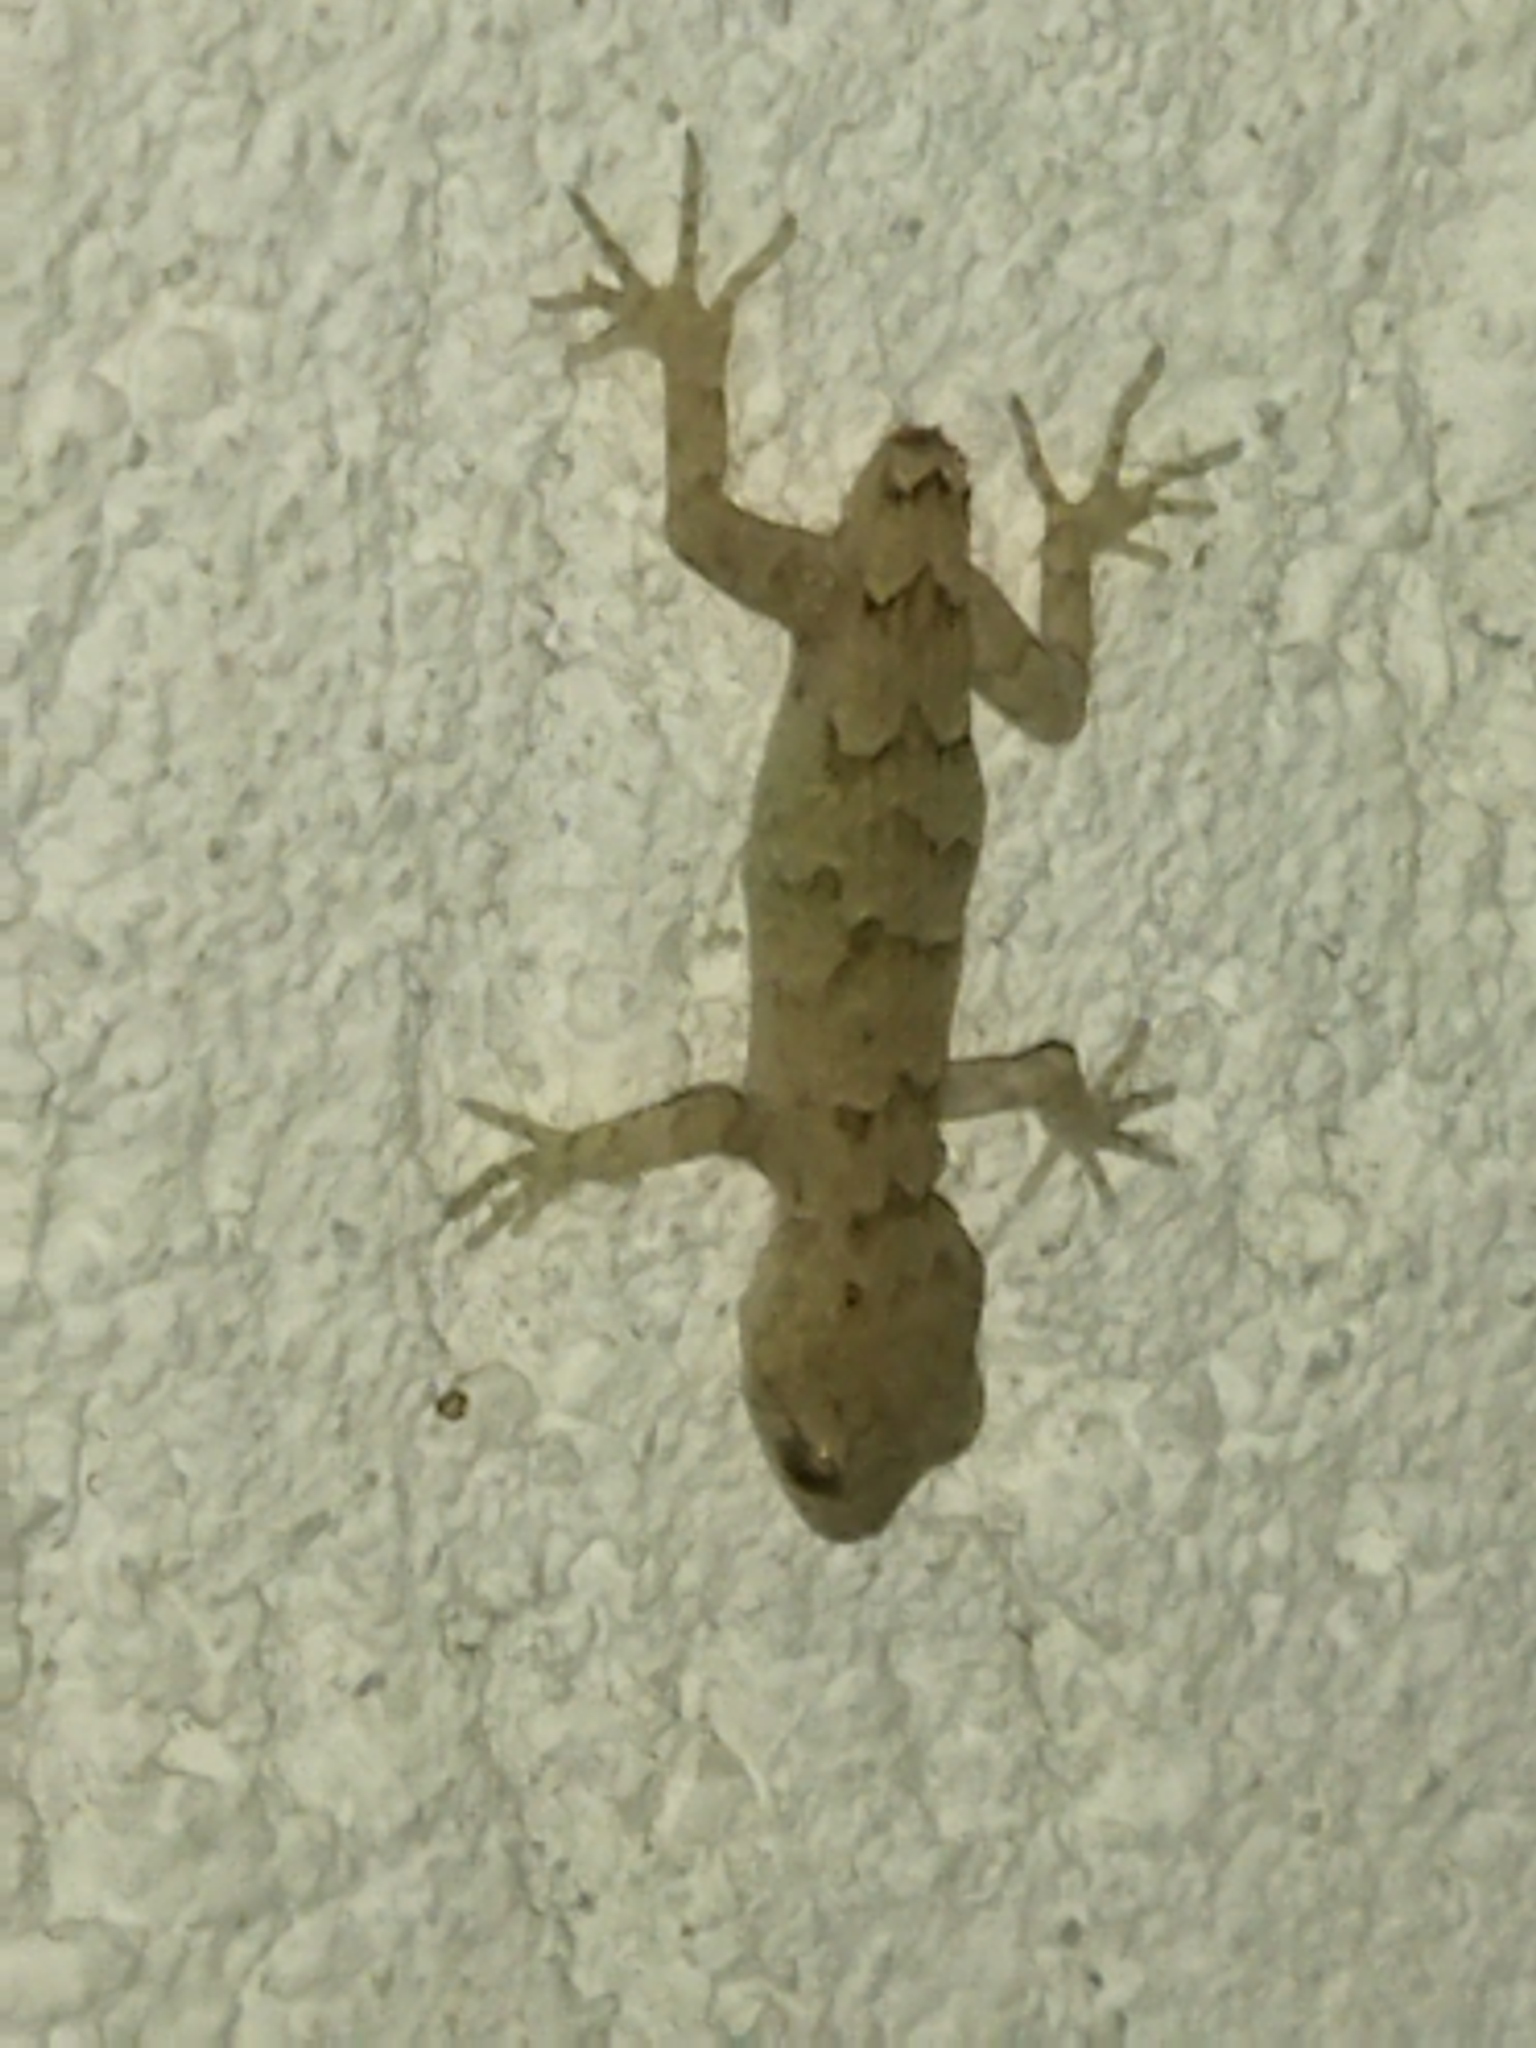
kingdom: Animalia
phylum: Chordata
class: Squamata
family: Gekkonidae
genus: Mediodactylus
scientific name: Mediodactylus kotschyi
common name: Kotschy's gecko
